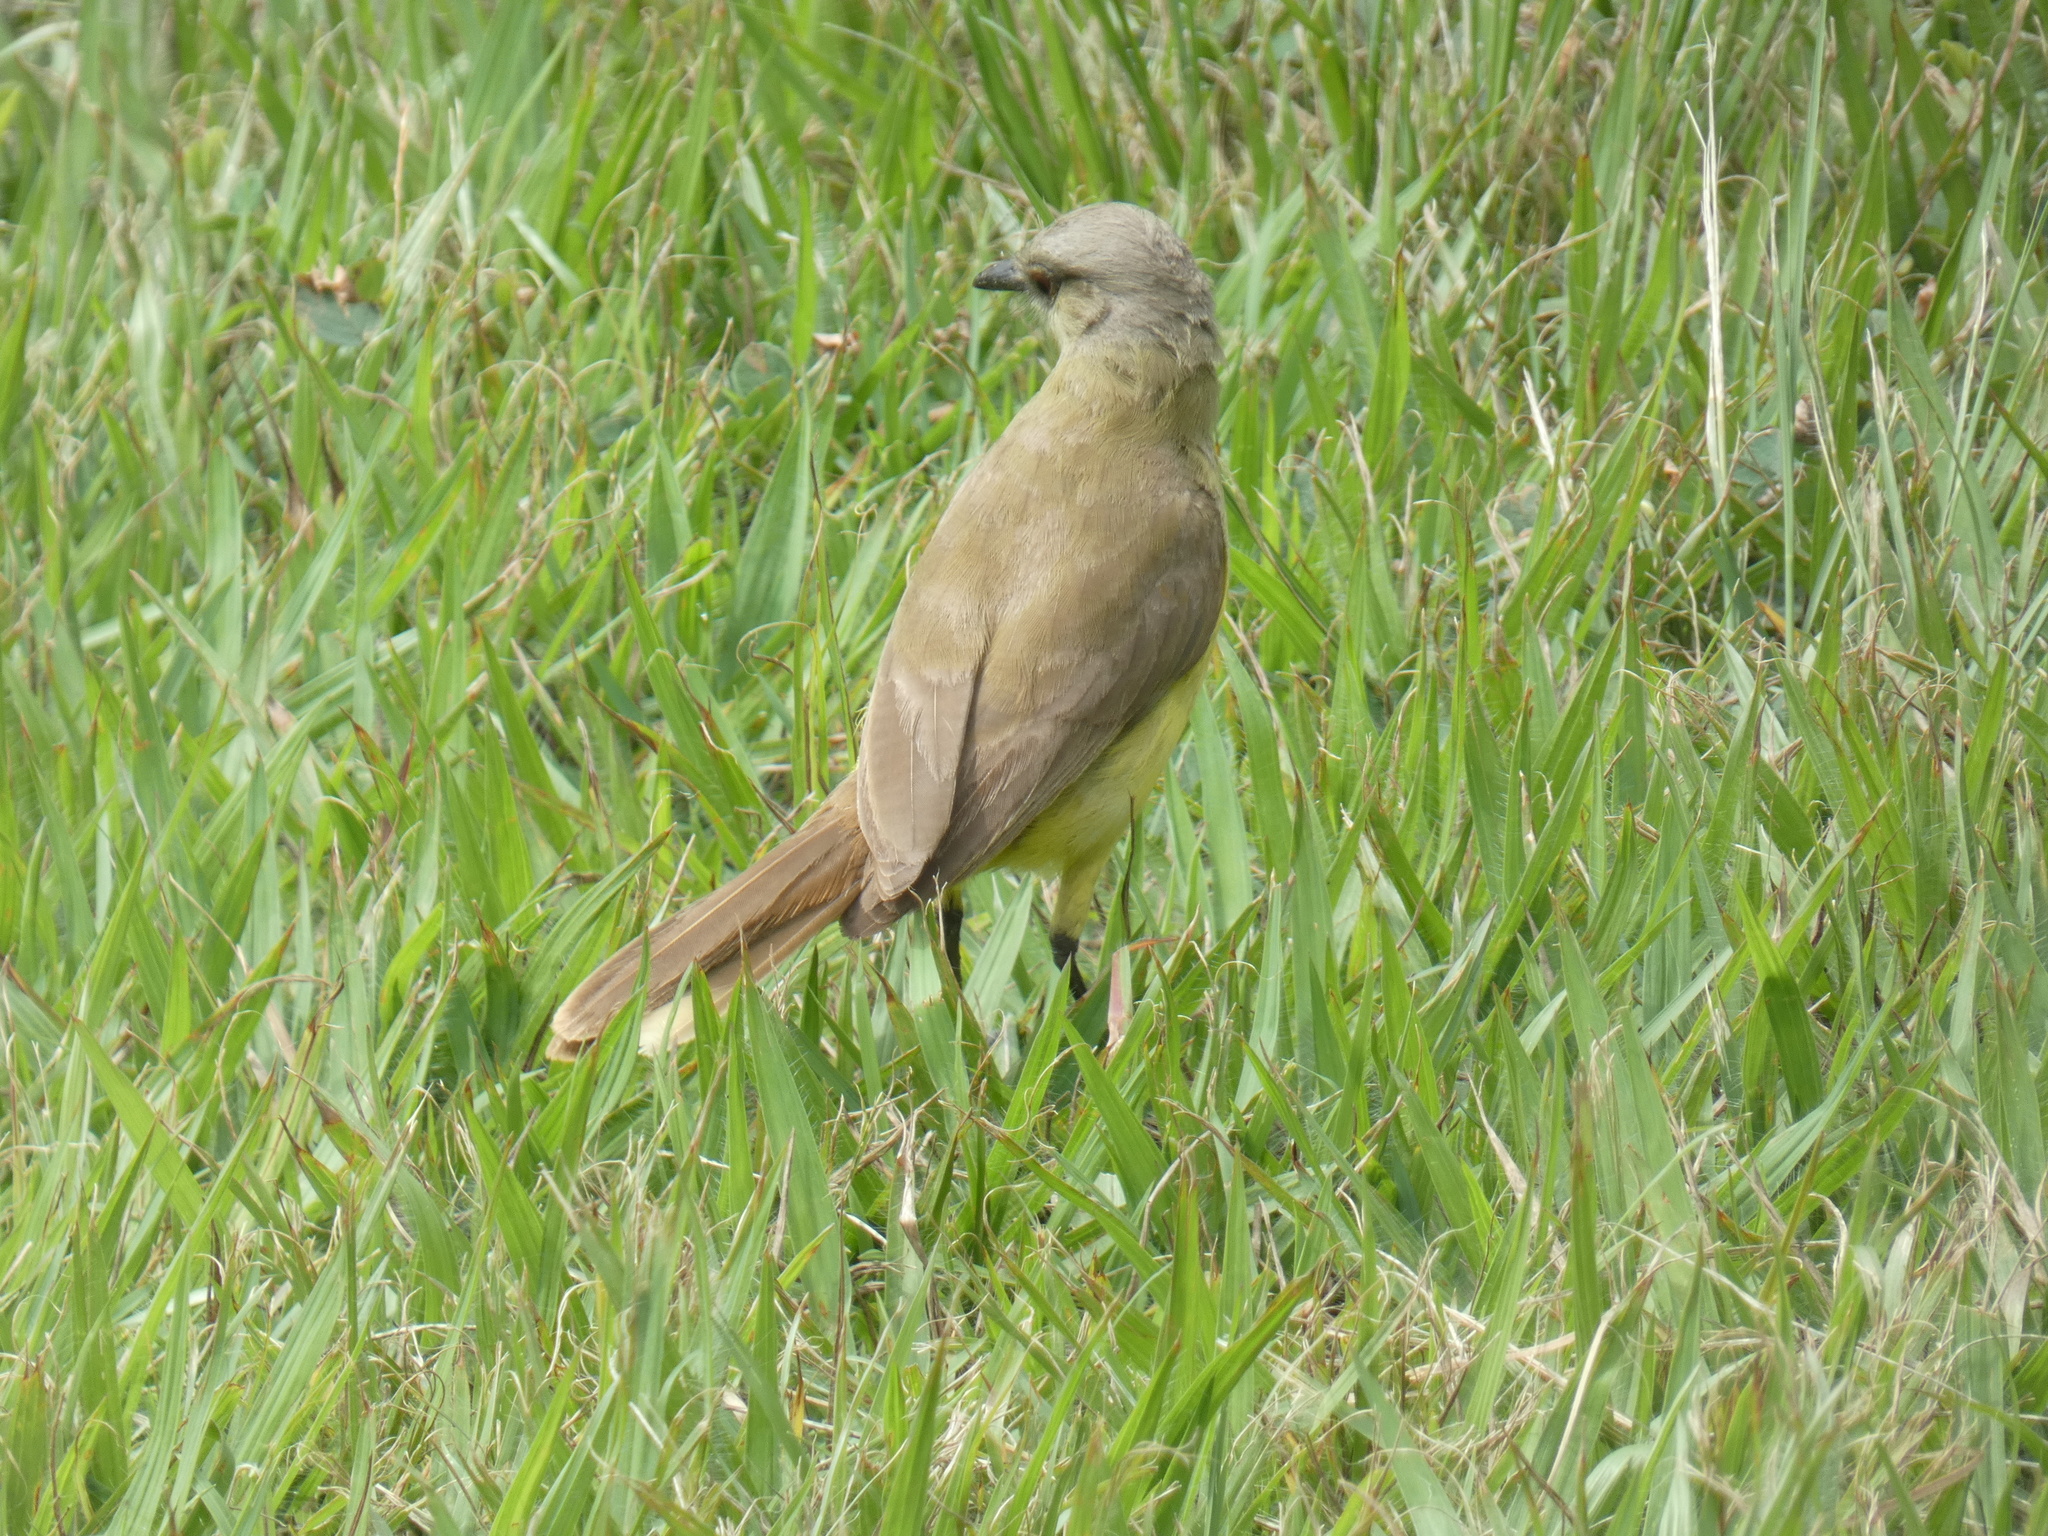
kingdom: Animalia
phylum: Chordata
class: Aves
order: Passeriformes
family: Tyrannidae
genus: Machetornis
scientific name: Machetornis rixosa
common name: Cattle tyrant
